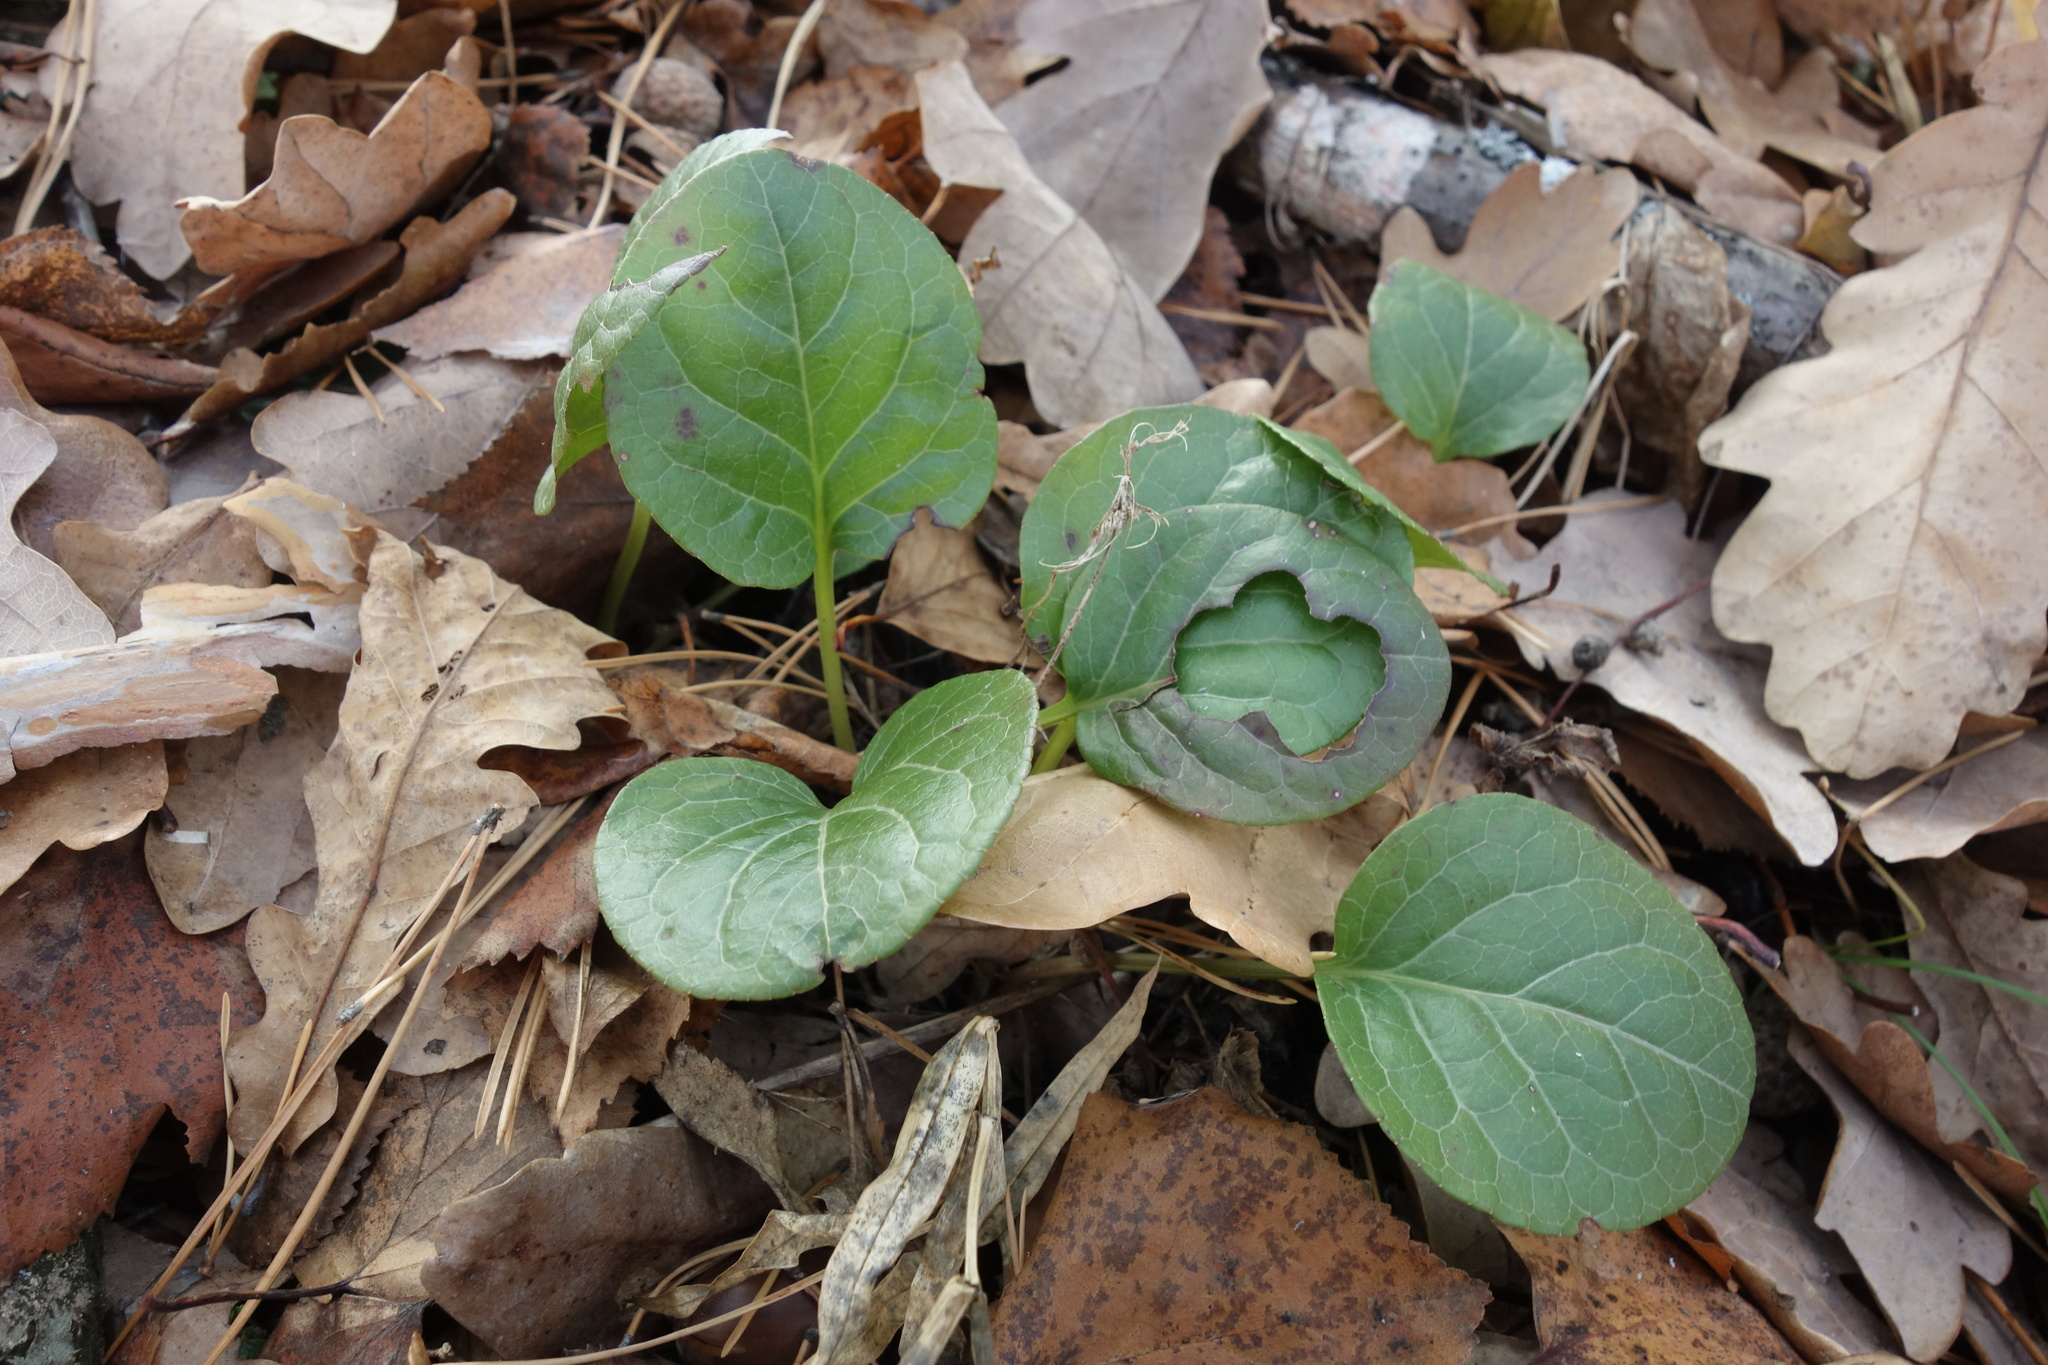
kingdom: Plantae
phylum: Tracheophyta
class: Magnoliopsida
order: Ericales
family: Ericaceae
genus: Pyrola
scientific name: Pyrola rotundifolia
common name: Round-leaved wintergreen
